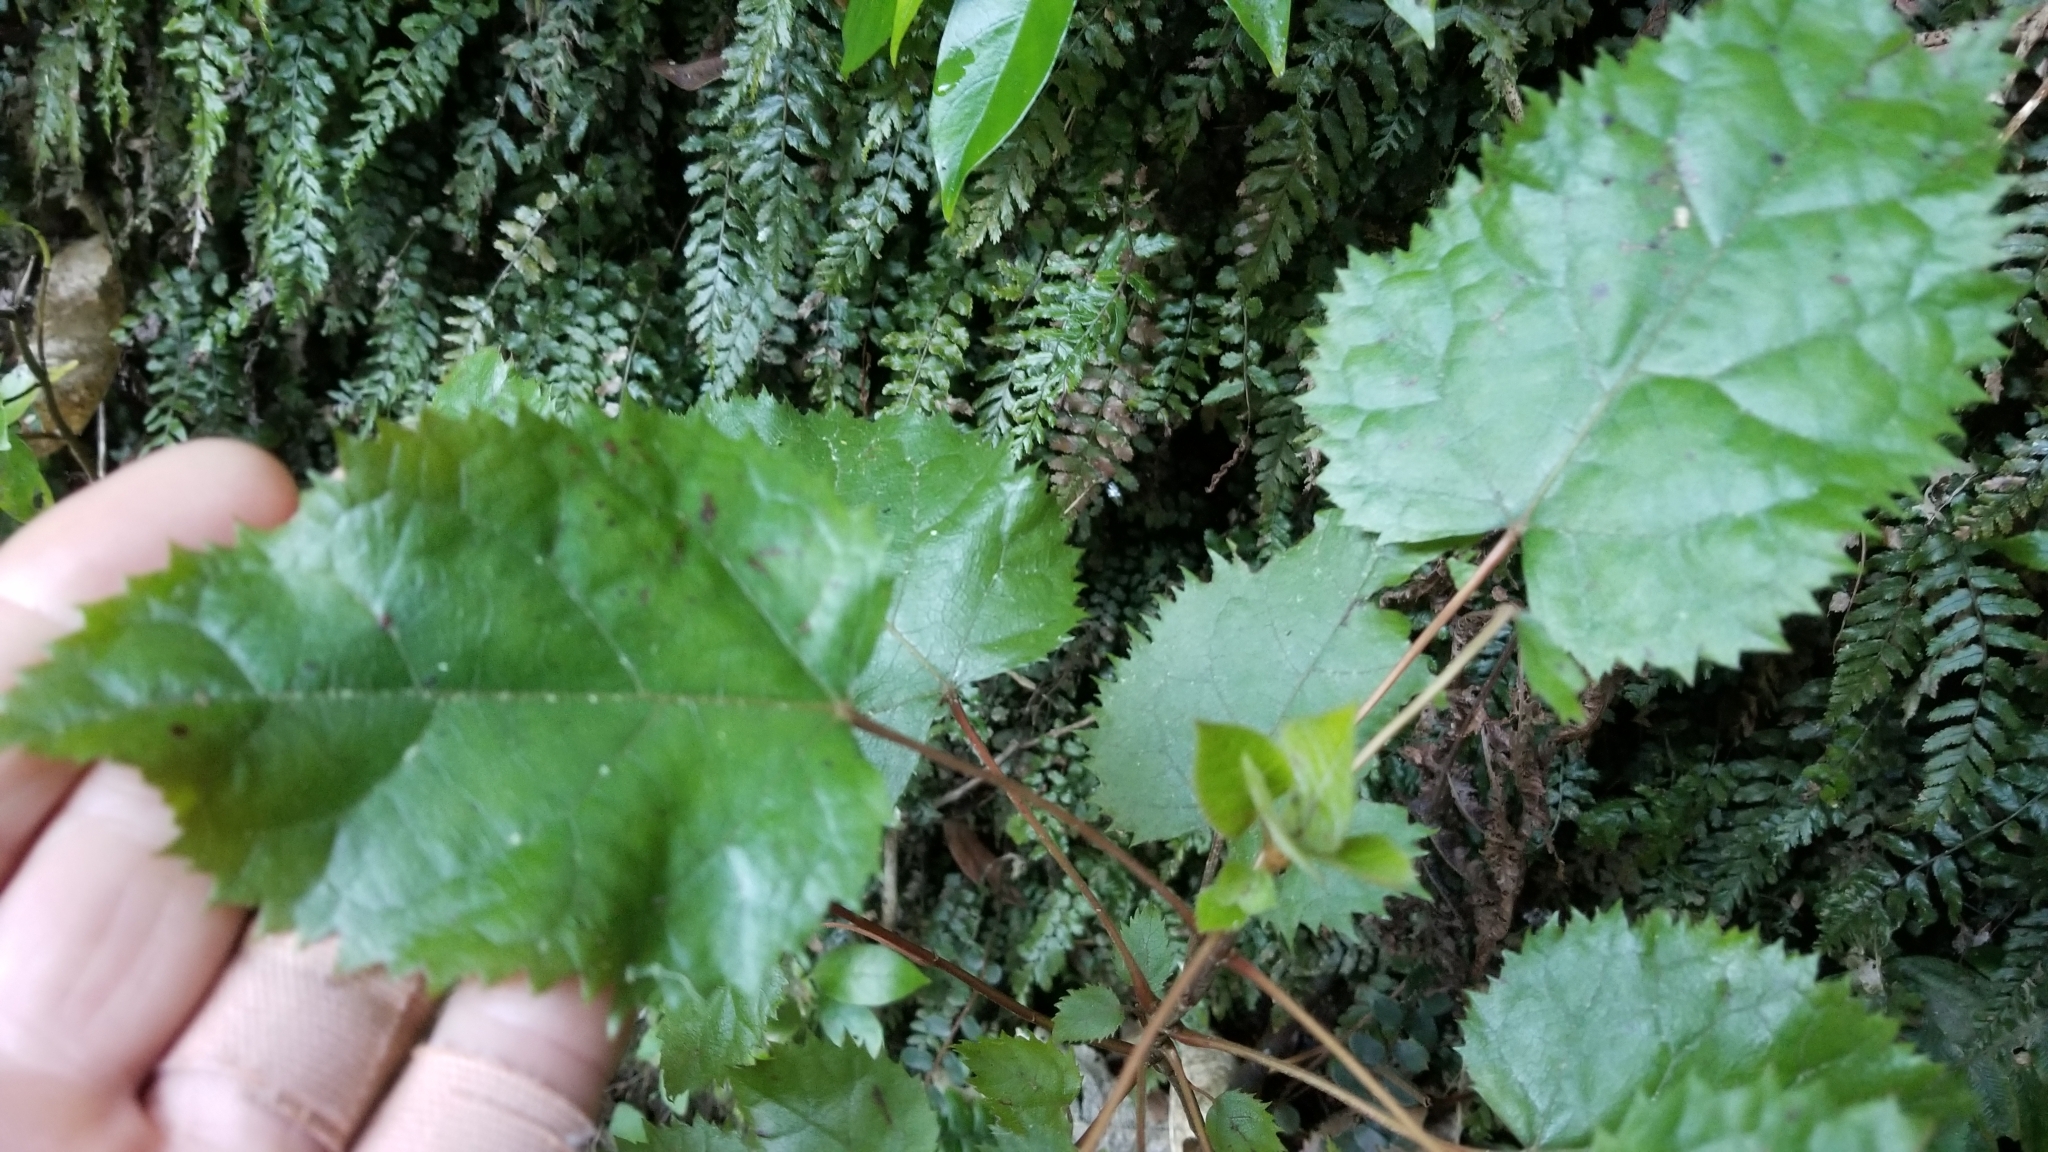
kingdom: Plantae
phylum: Tracheophyta
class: Magnoliopsida
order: Oxalidales
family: Elaeocarpaceae
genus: Aristotelia
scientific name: Aristotelia serrata
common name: New zealand wineberry
